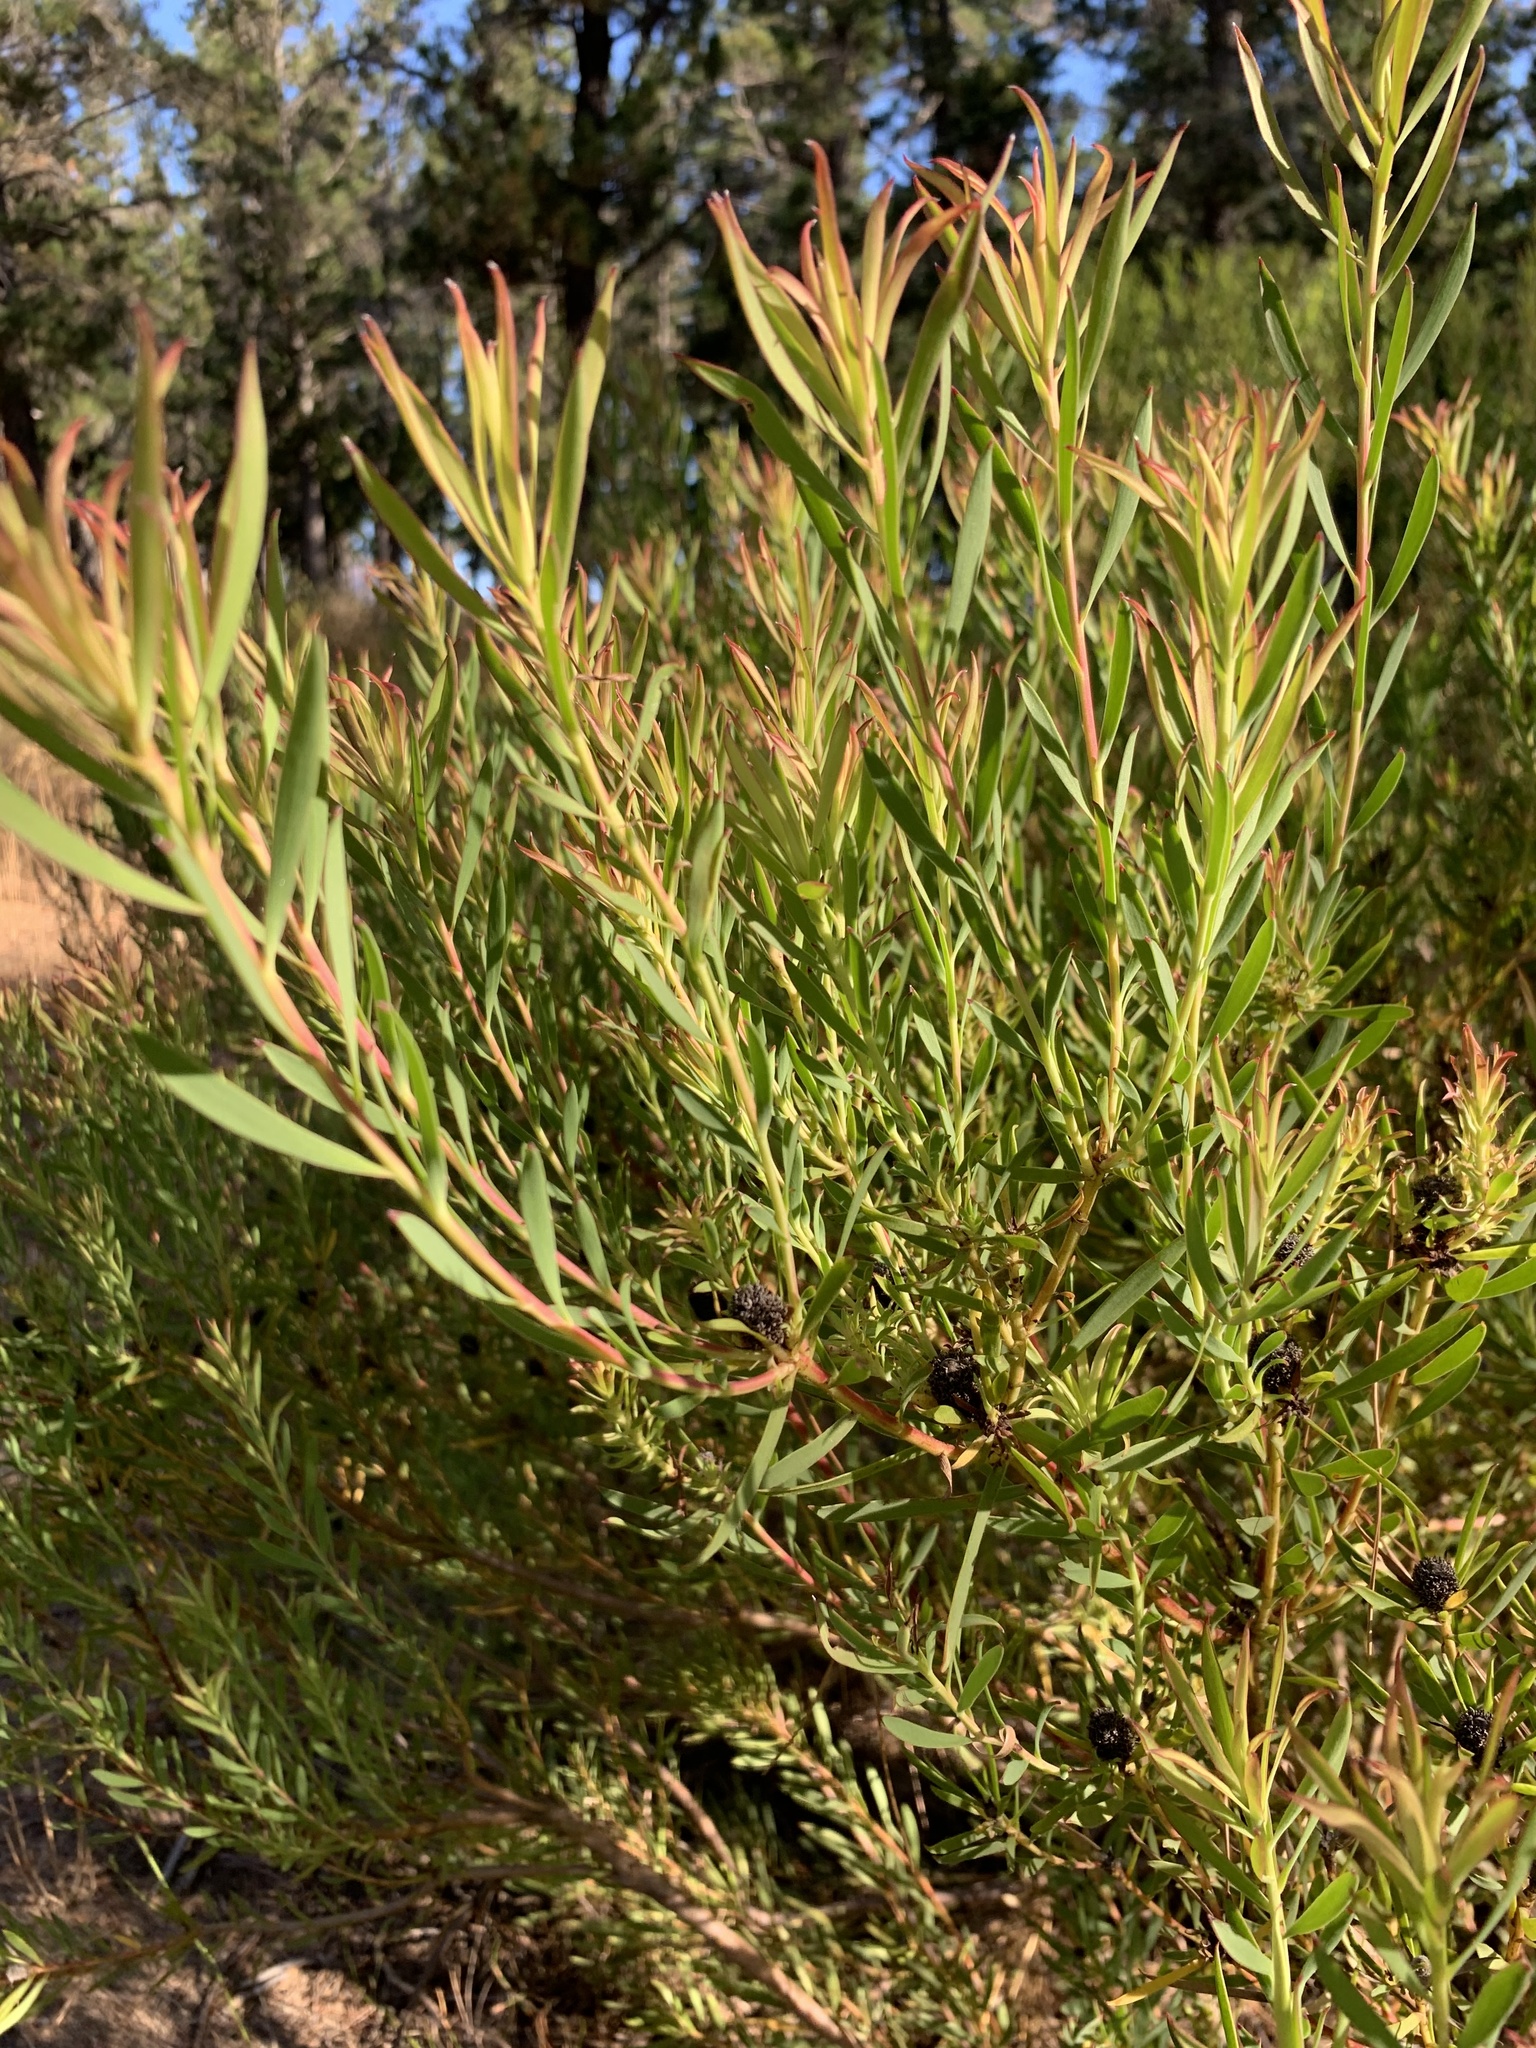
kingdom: Plantae
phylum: Tracheophyta
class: Magnoliopsida
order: Proteales
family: Proteaceae
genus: Leucadendron
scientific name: Leucadendron salignum
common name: Common sunshine conebush
